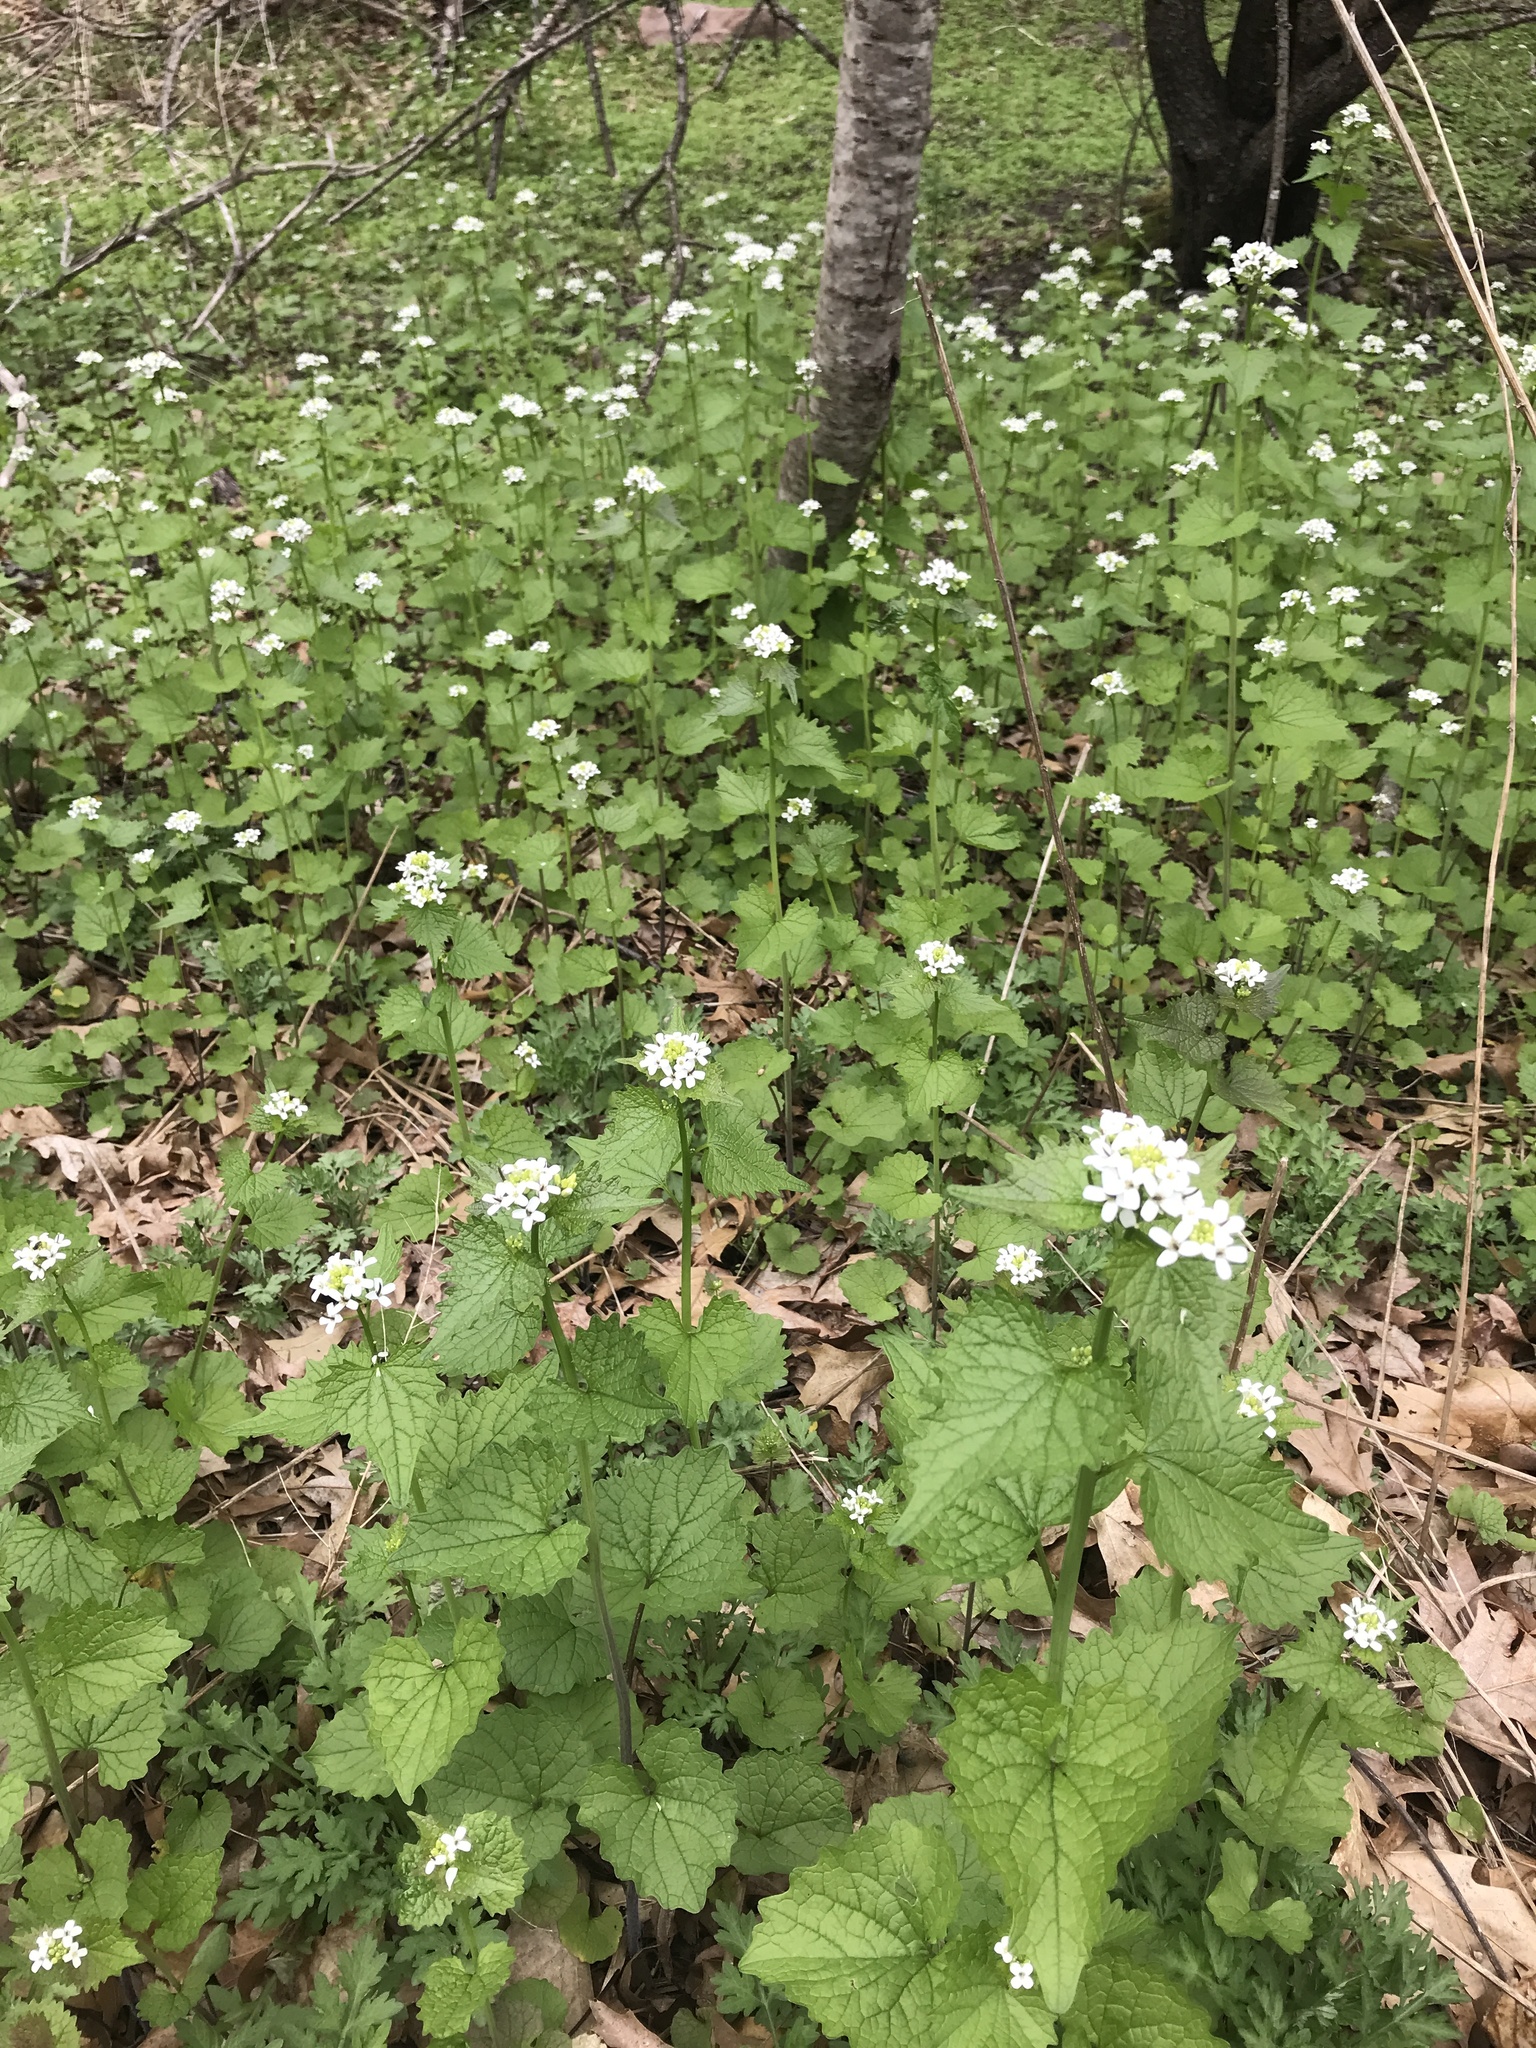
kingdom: Plantae
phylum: Tracheophyta
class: Magnoliopsida
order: Brassicales
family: Brassicaceae
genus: Alliaria
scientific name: Alliaria petiolata
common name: Garlic mustard
